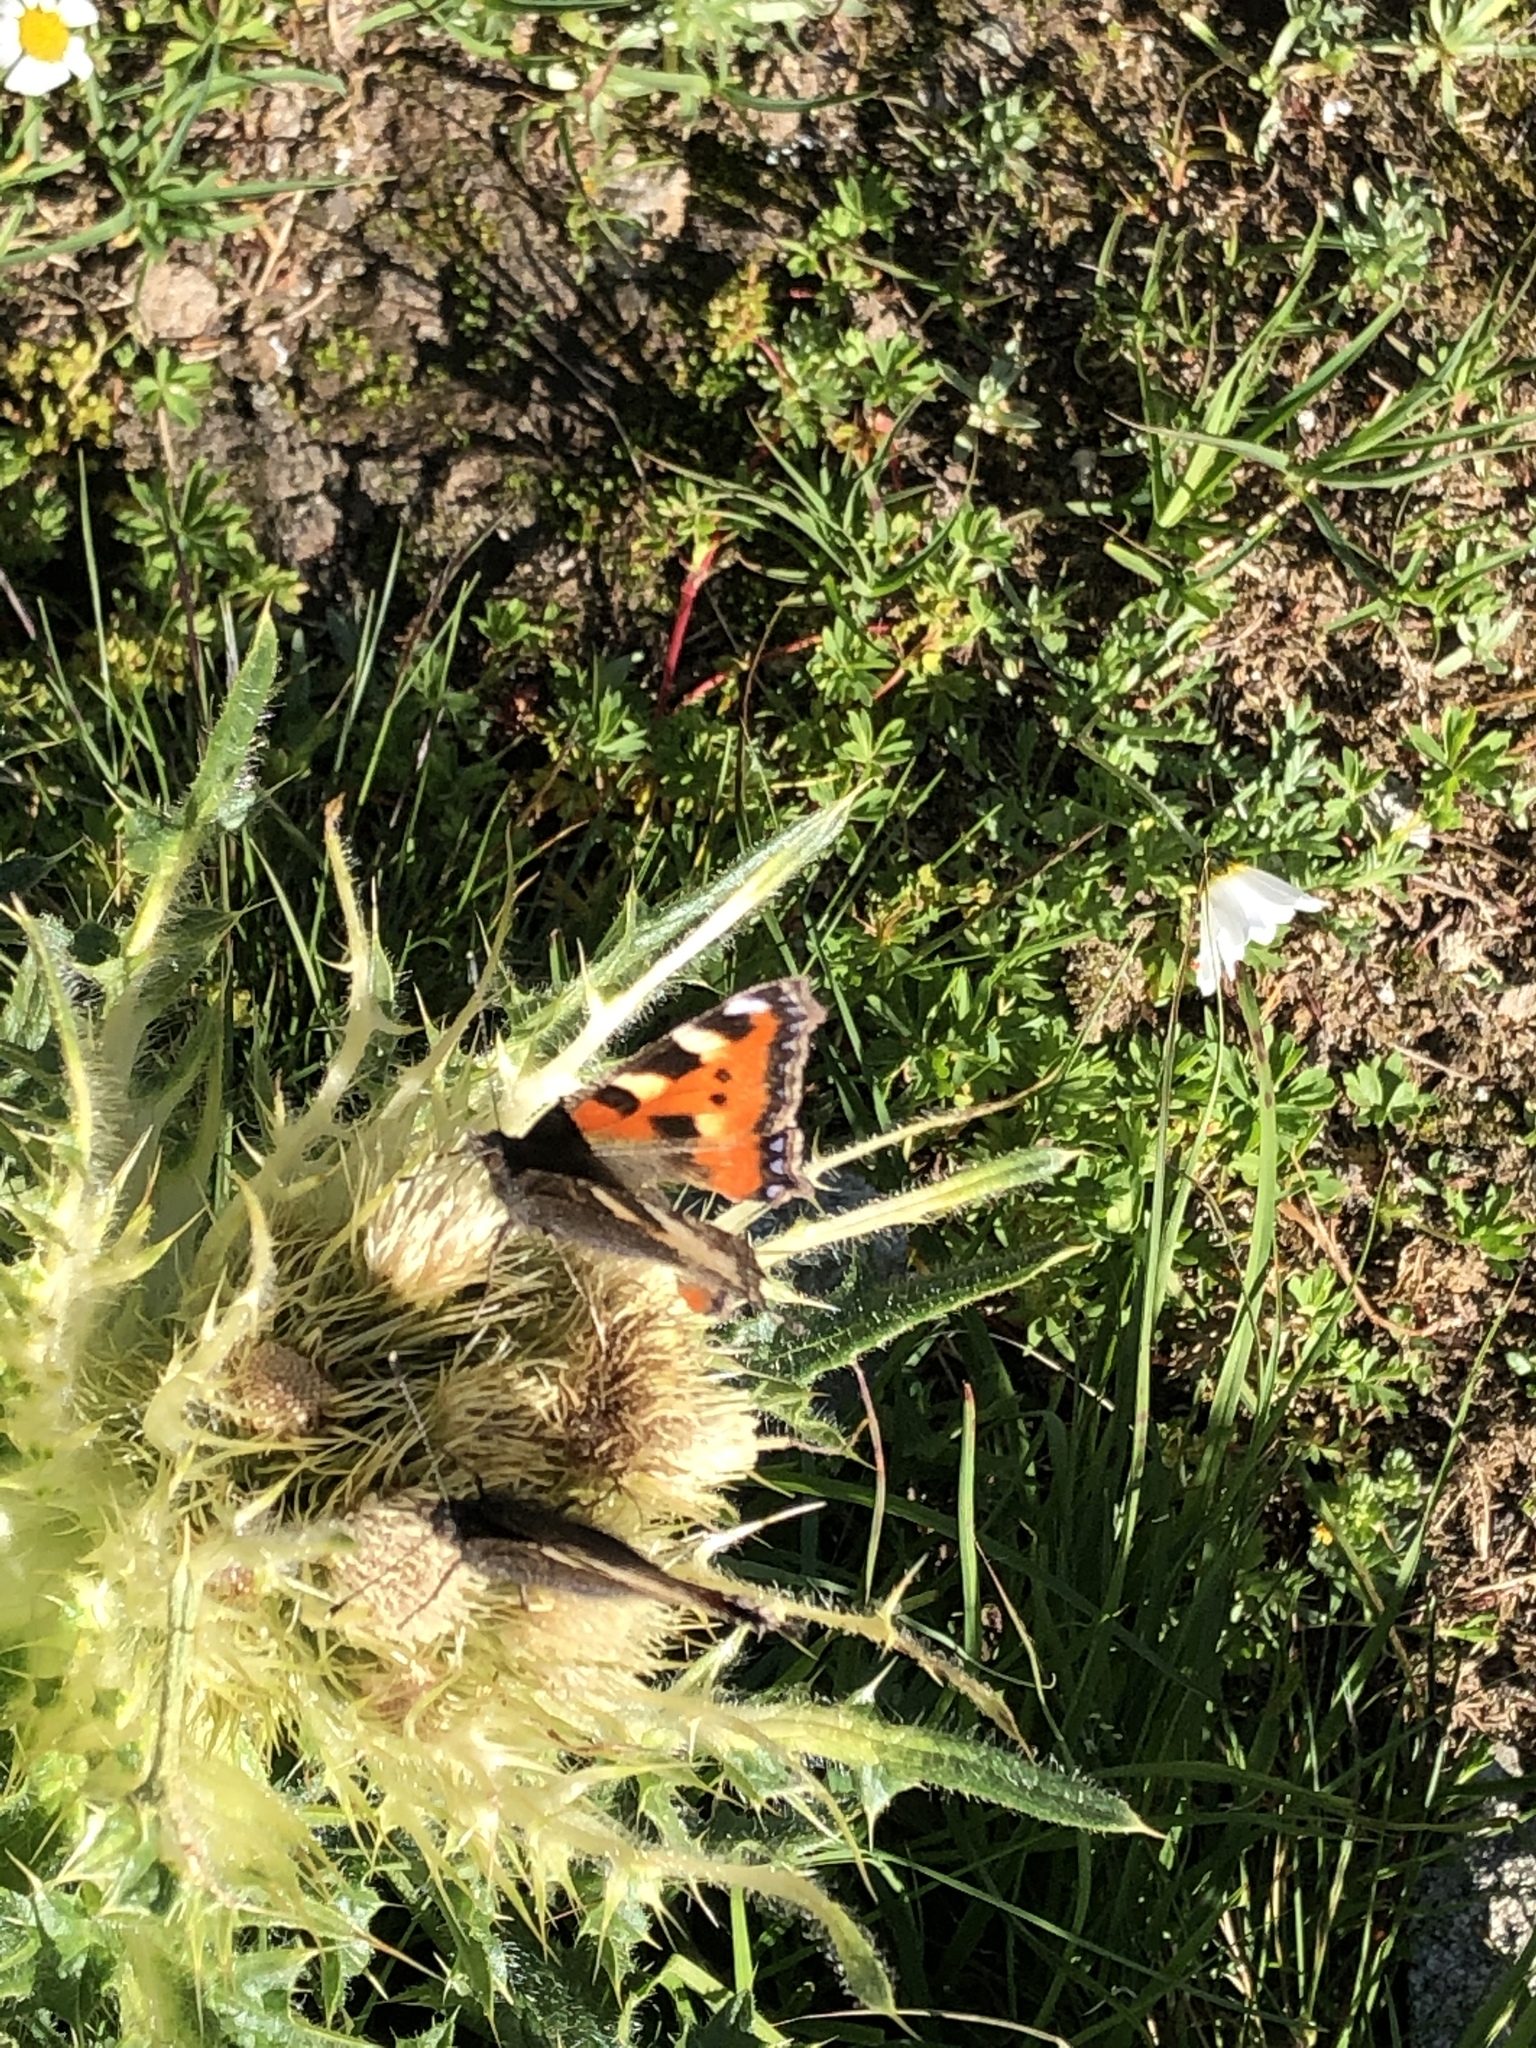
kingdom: Animalia
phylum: Arthropoda
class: Insecta
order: Lepidoptera
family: Nymphalidae
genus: Aglais
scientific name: Aglais urticae
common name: Small tortoiseshell
